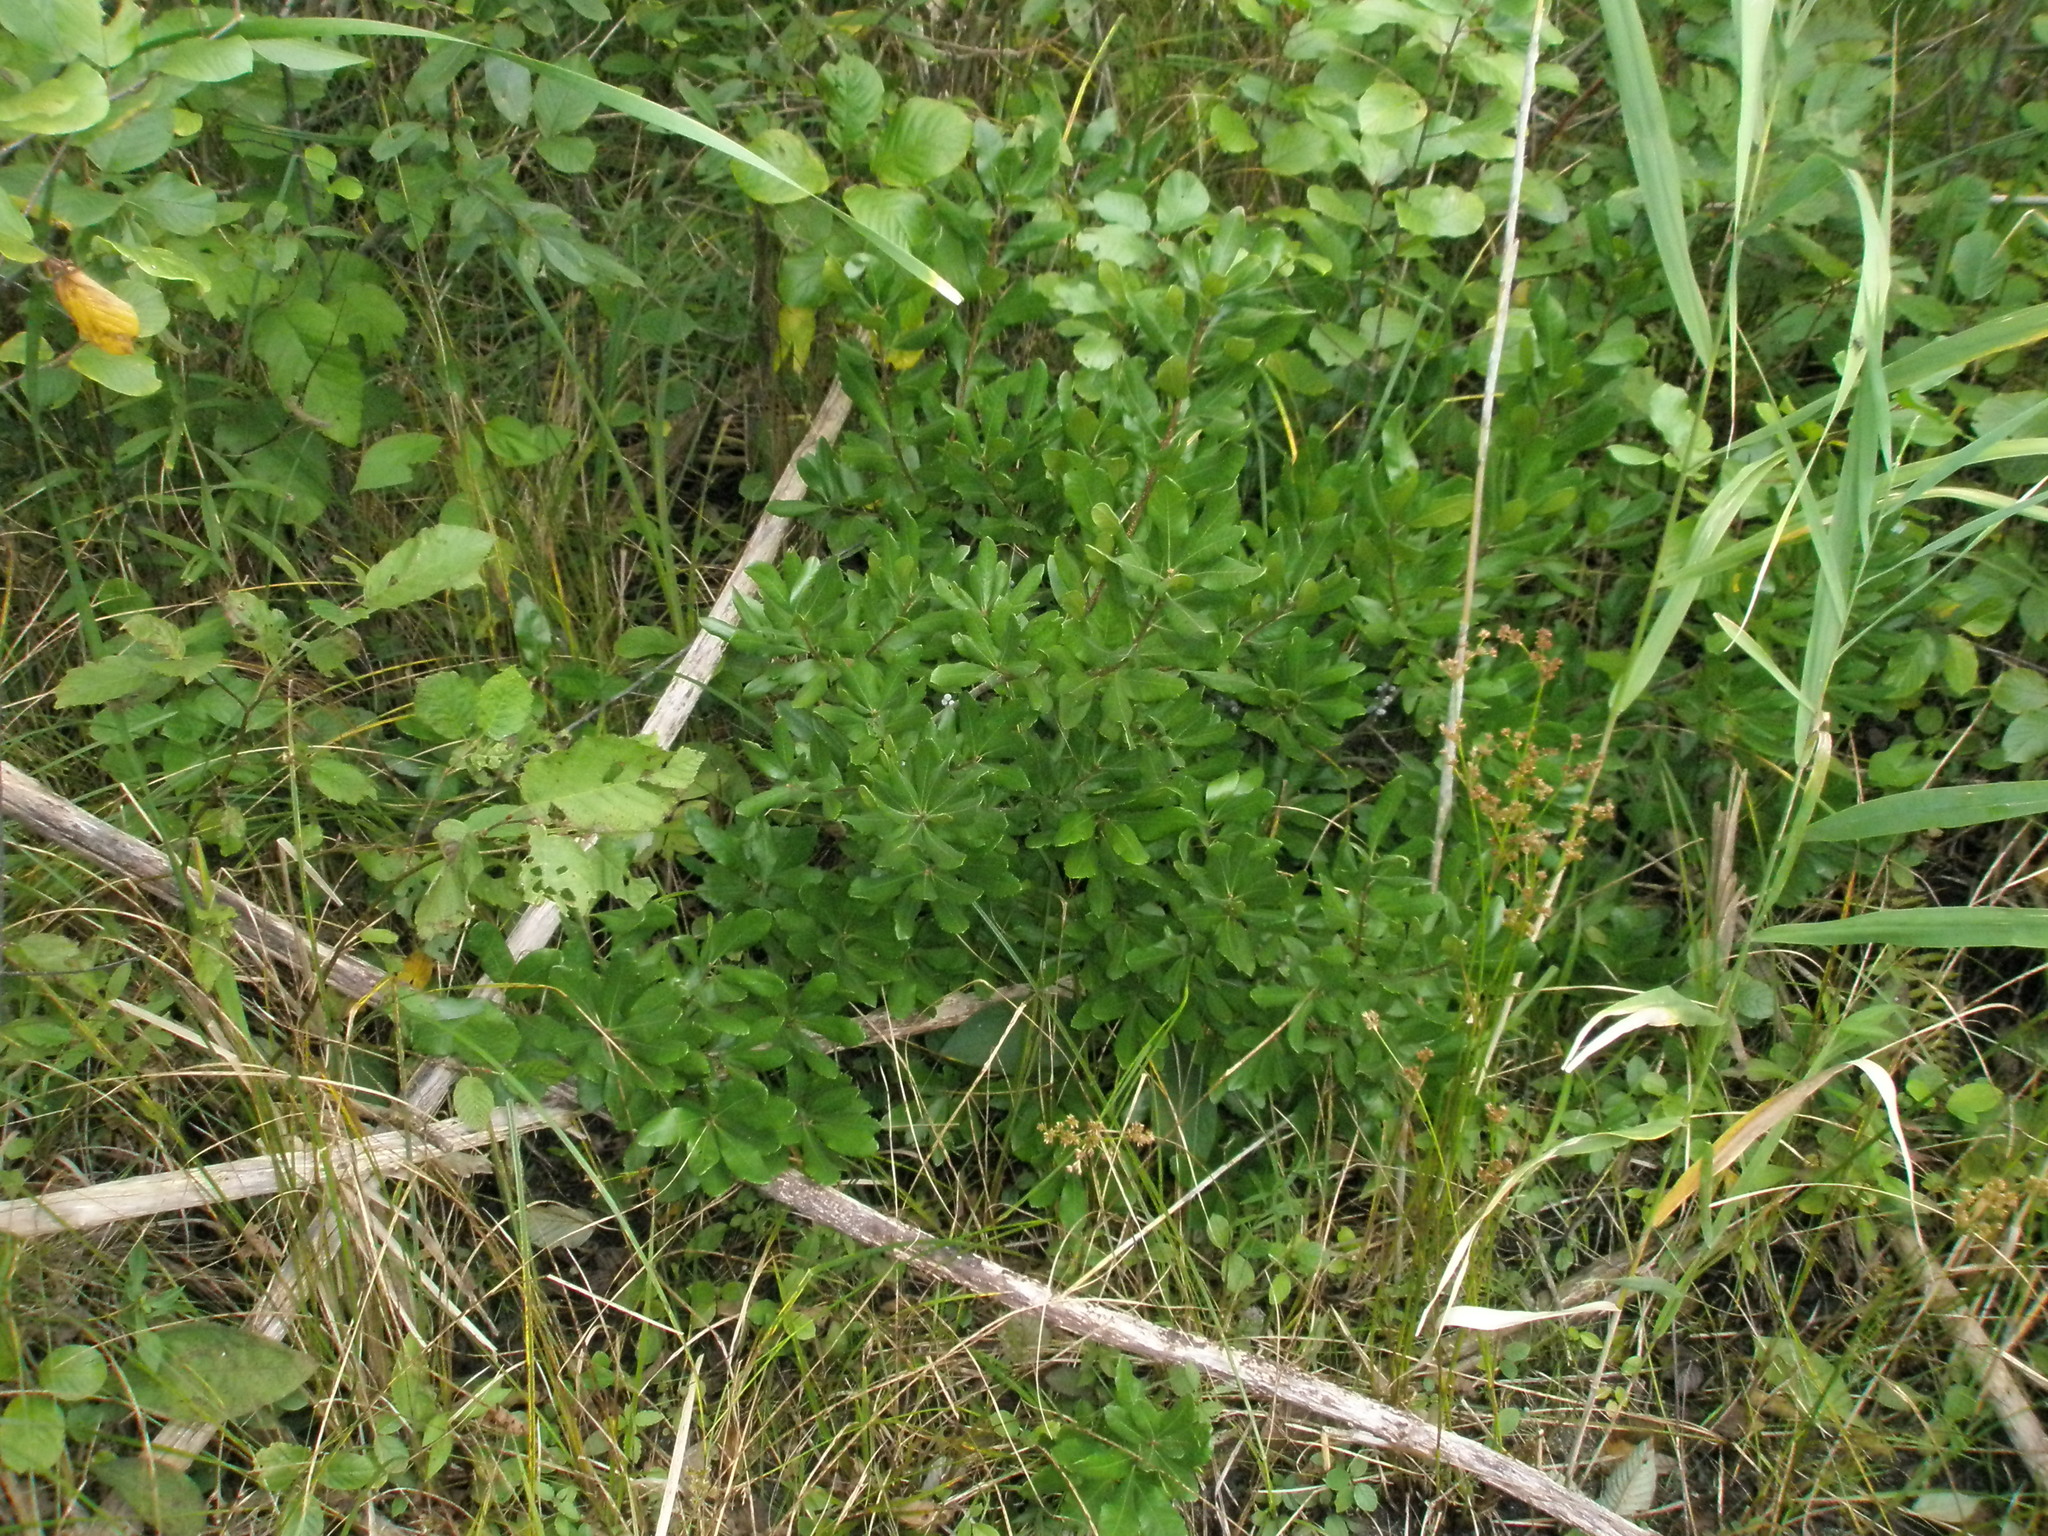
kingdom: Plantae
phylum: Tracheophyta
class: Magnoliopsida
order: Fagales
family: Myricaceae
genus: Morella
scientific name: Morella pensylvanica
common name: Northern bayberry
